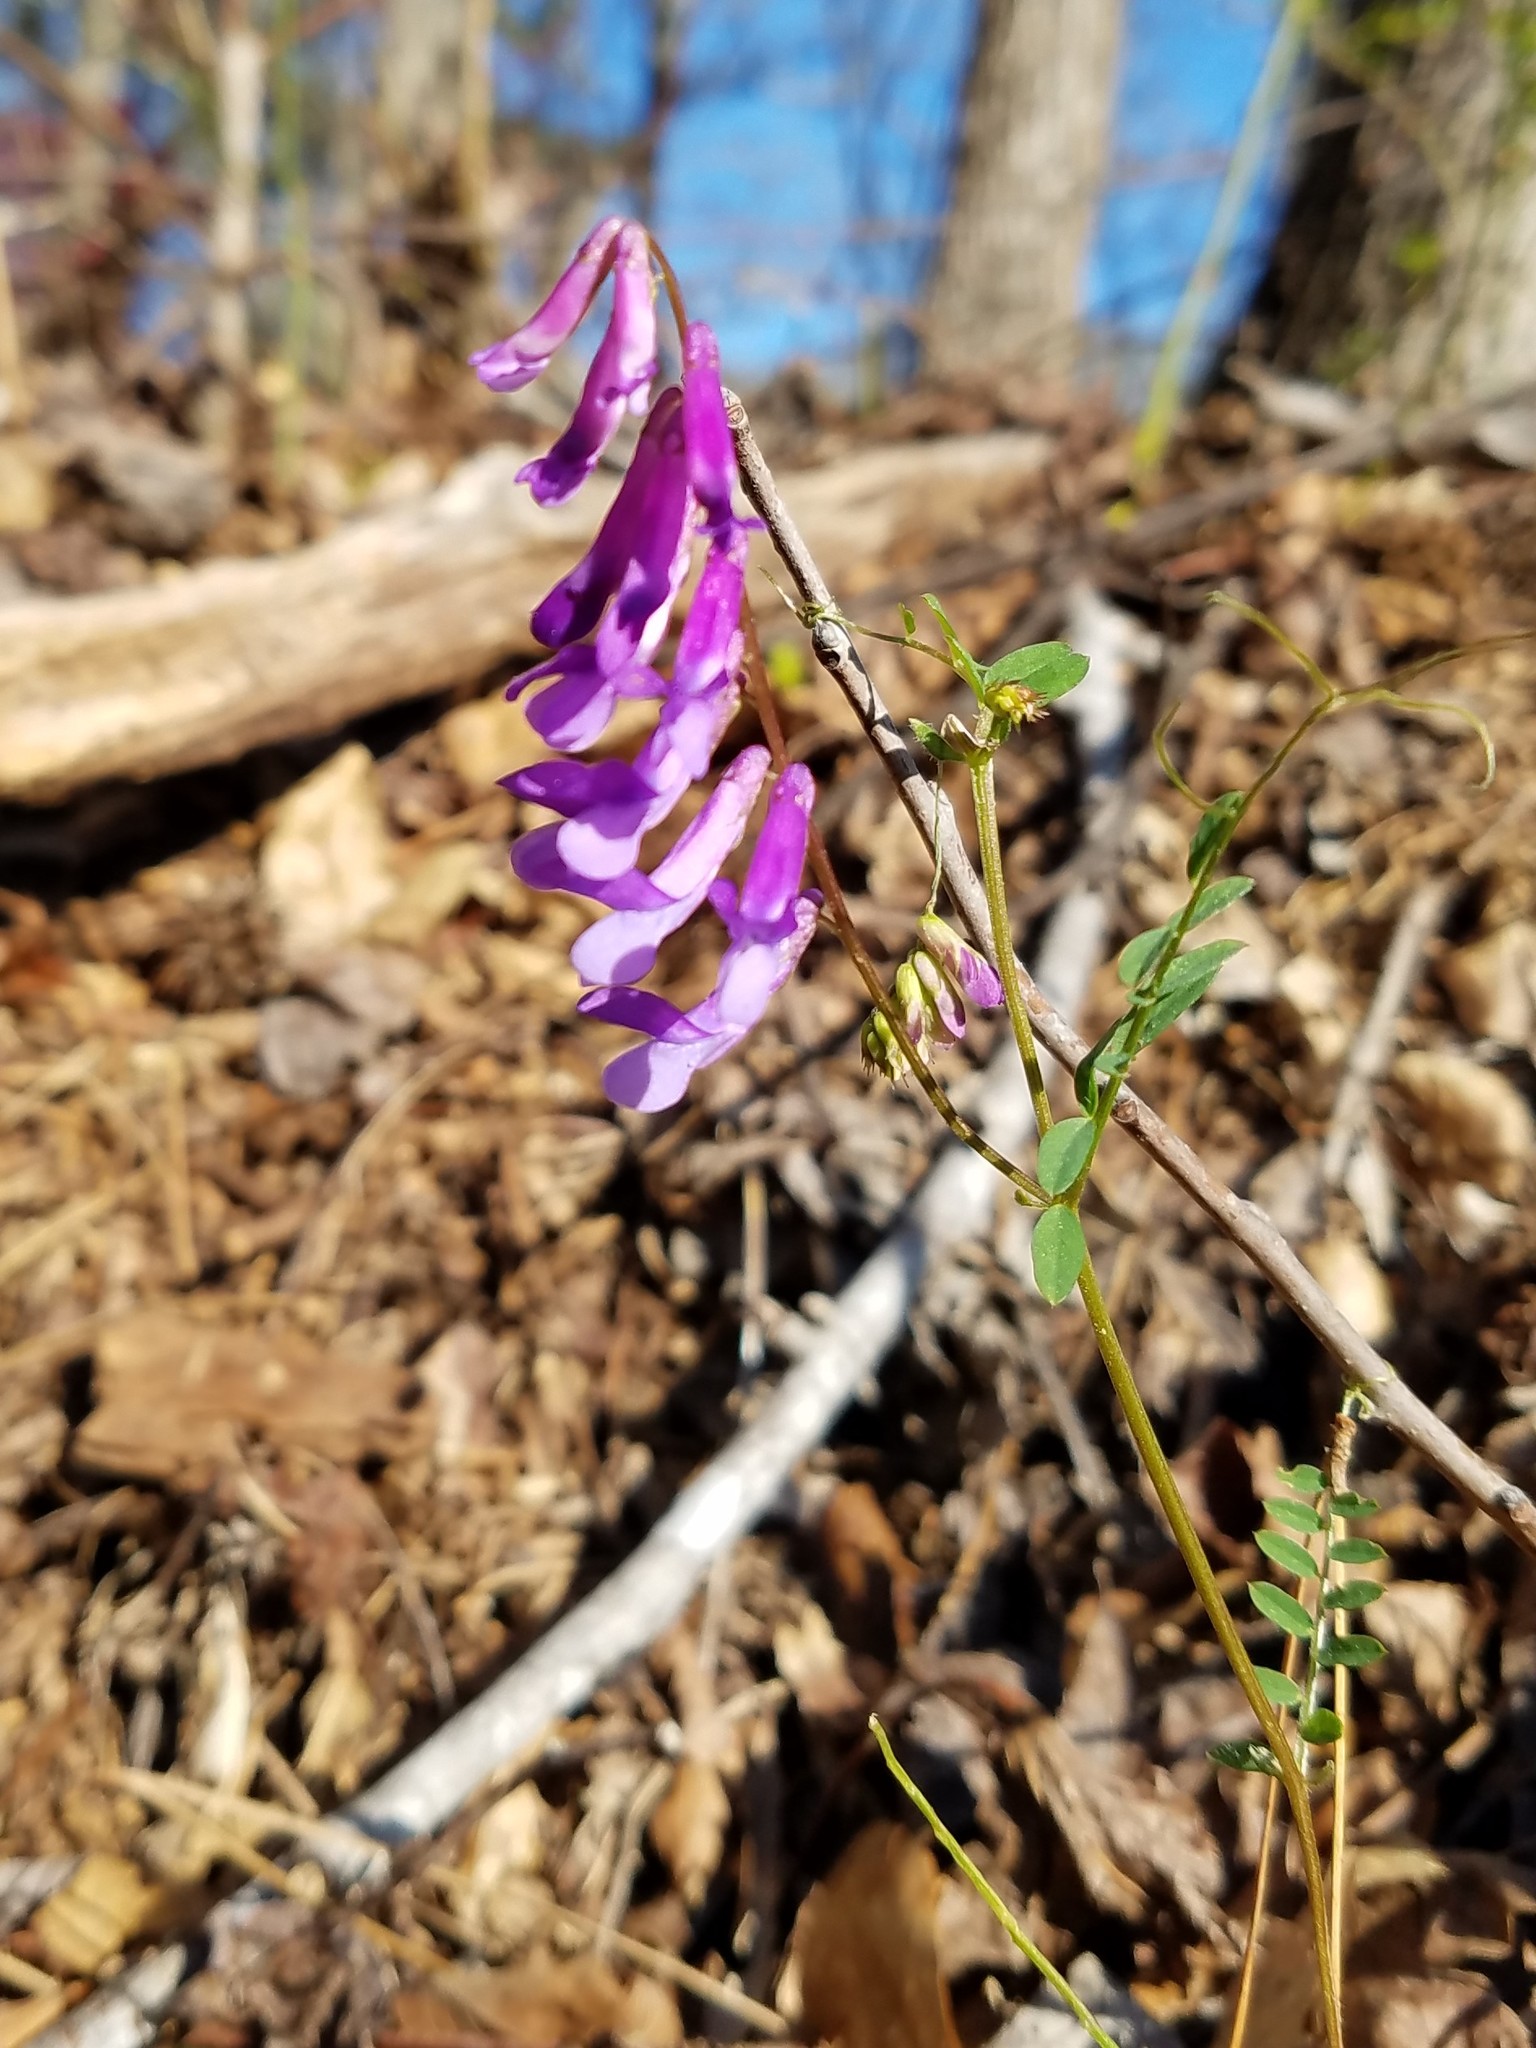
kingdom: Plantae
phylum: Tracheophyta
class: Magnoliopsida
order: Fabales
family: Fabaceae
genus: Vicia
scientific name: Vicia villosa
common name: Fodder vetch
